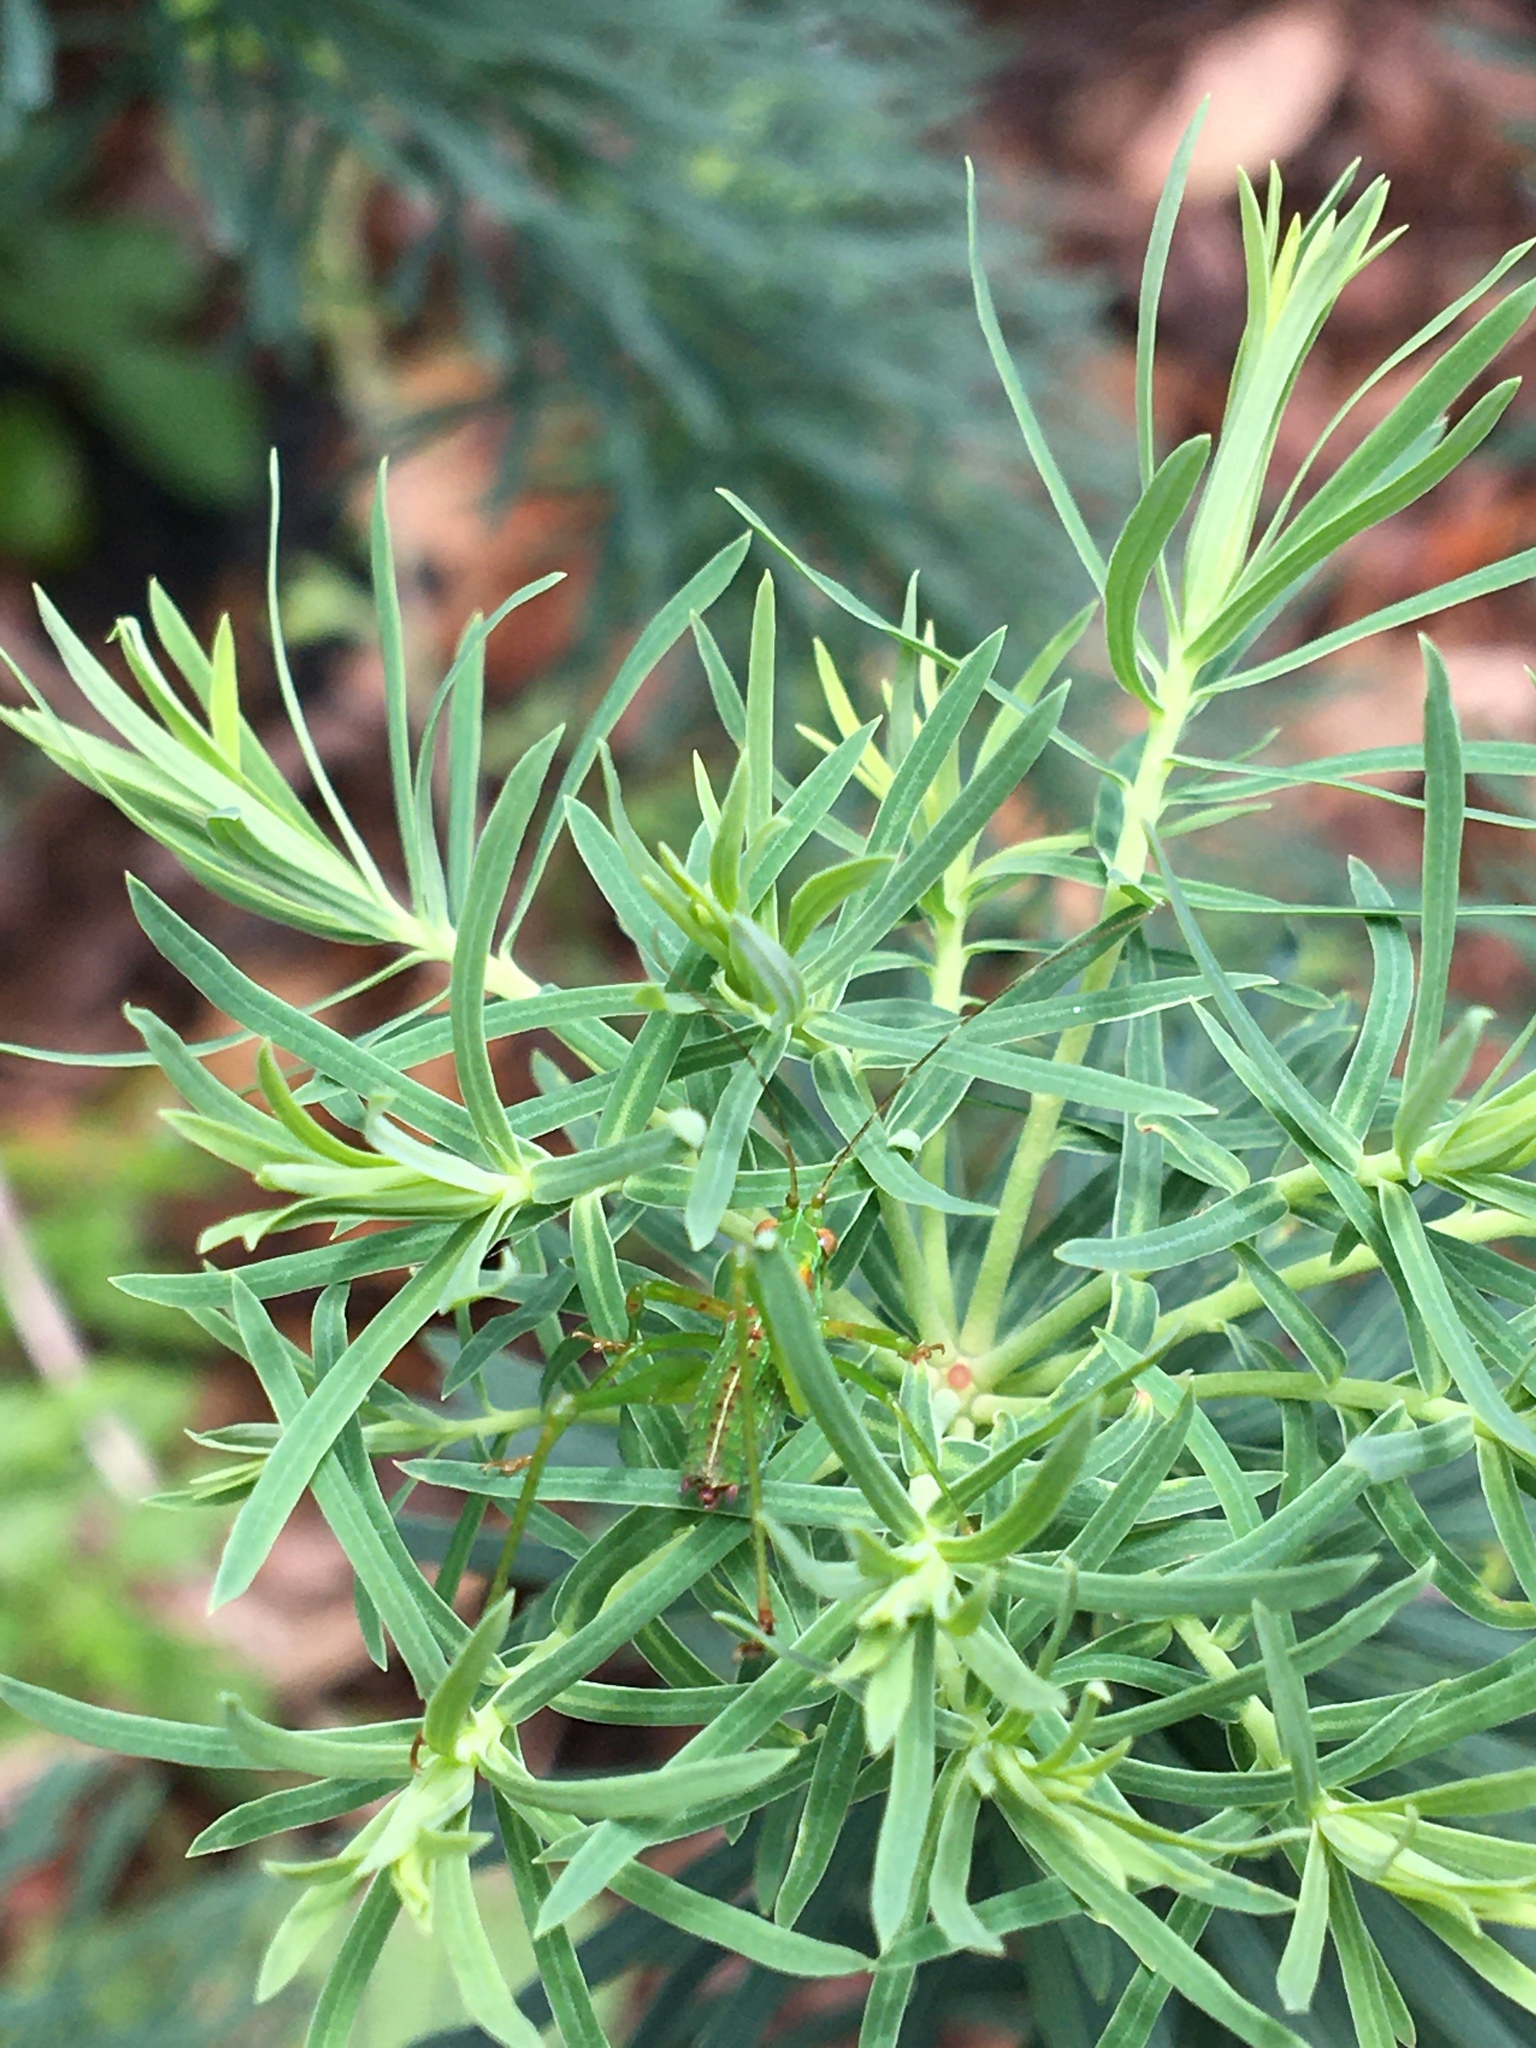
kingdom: Animalia
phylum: Arthropoda
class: Insecta
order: Orthoptera
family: Tettigoniidae
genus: Scudderia
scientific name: Scudderia
